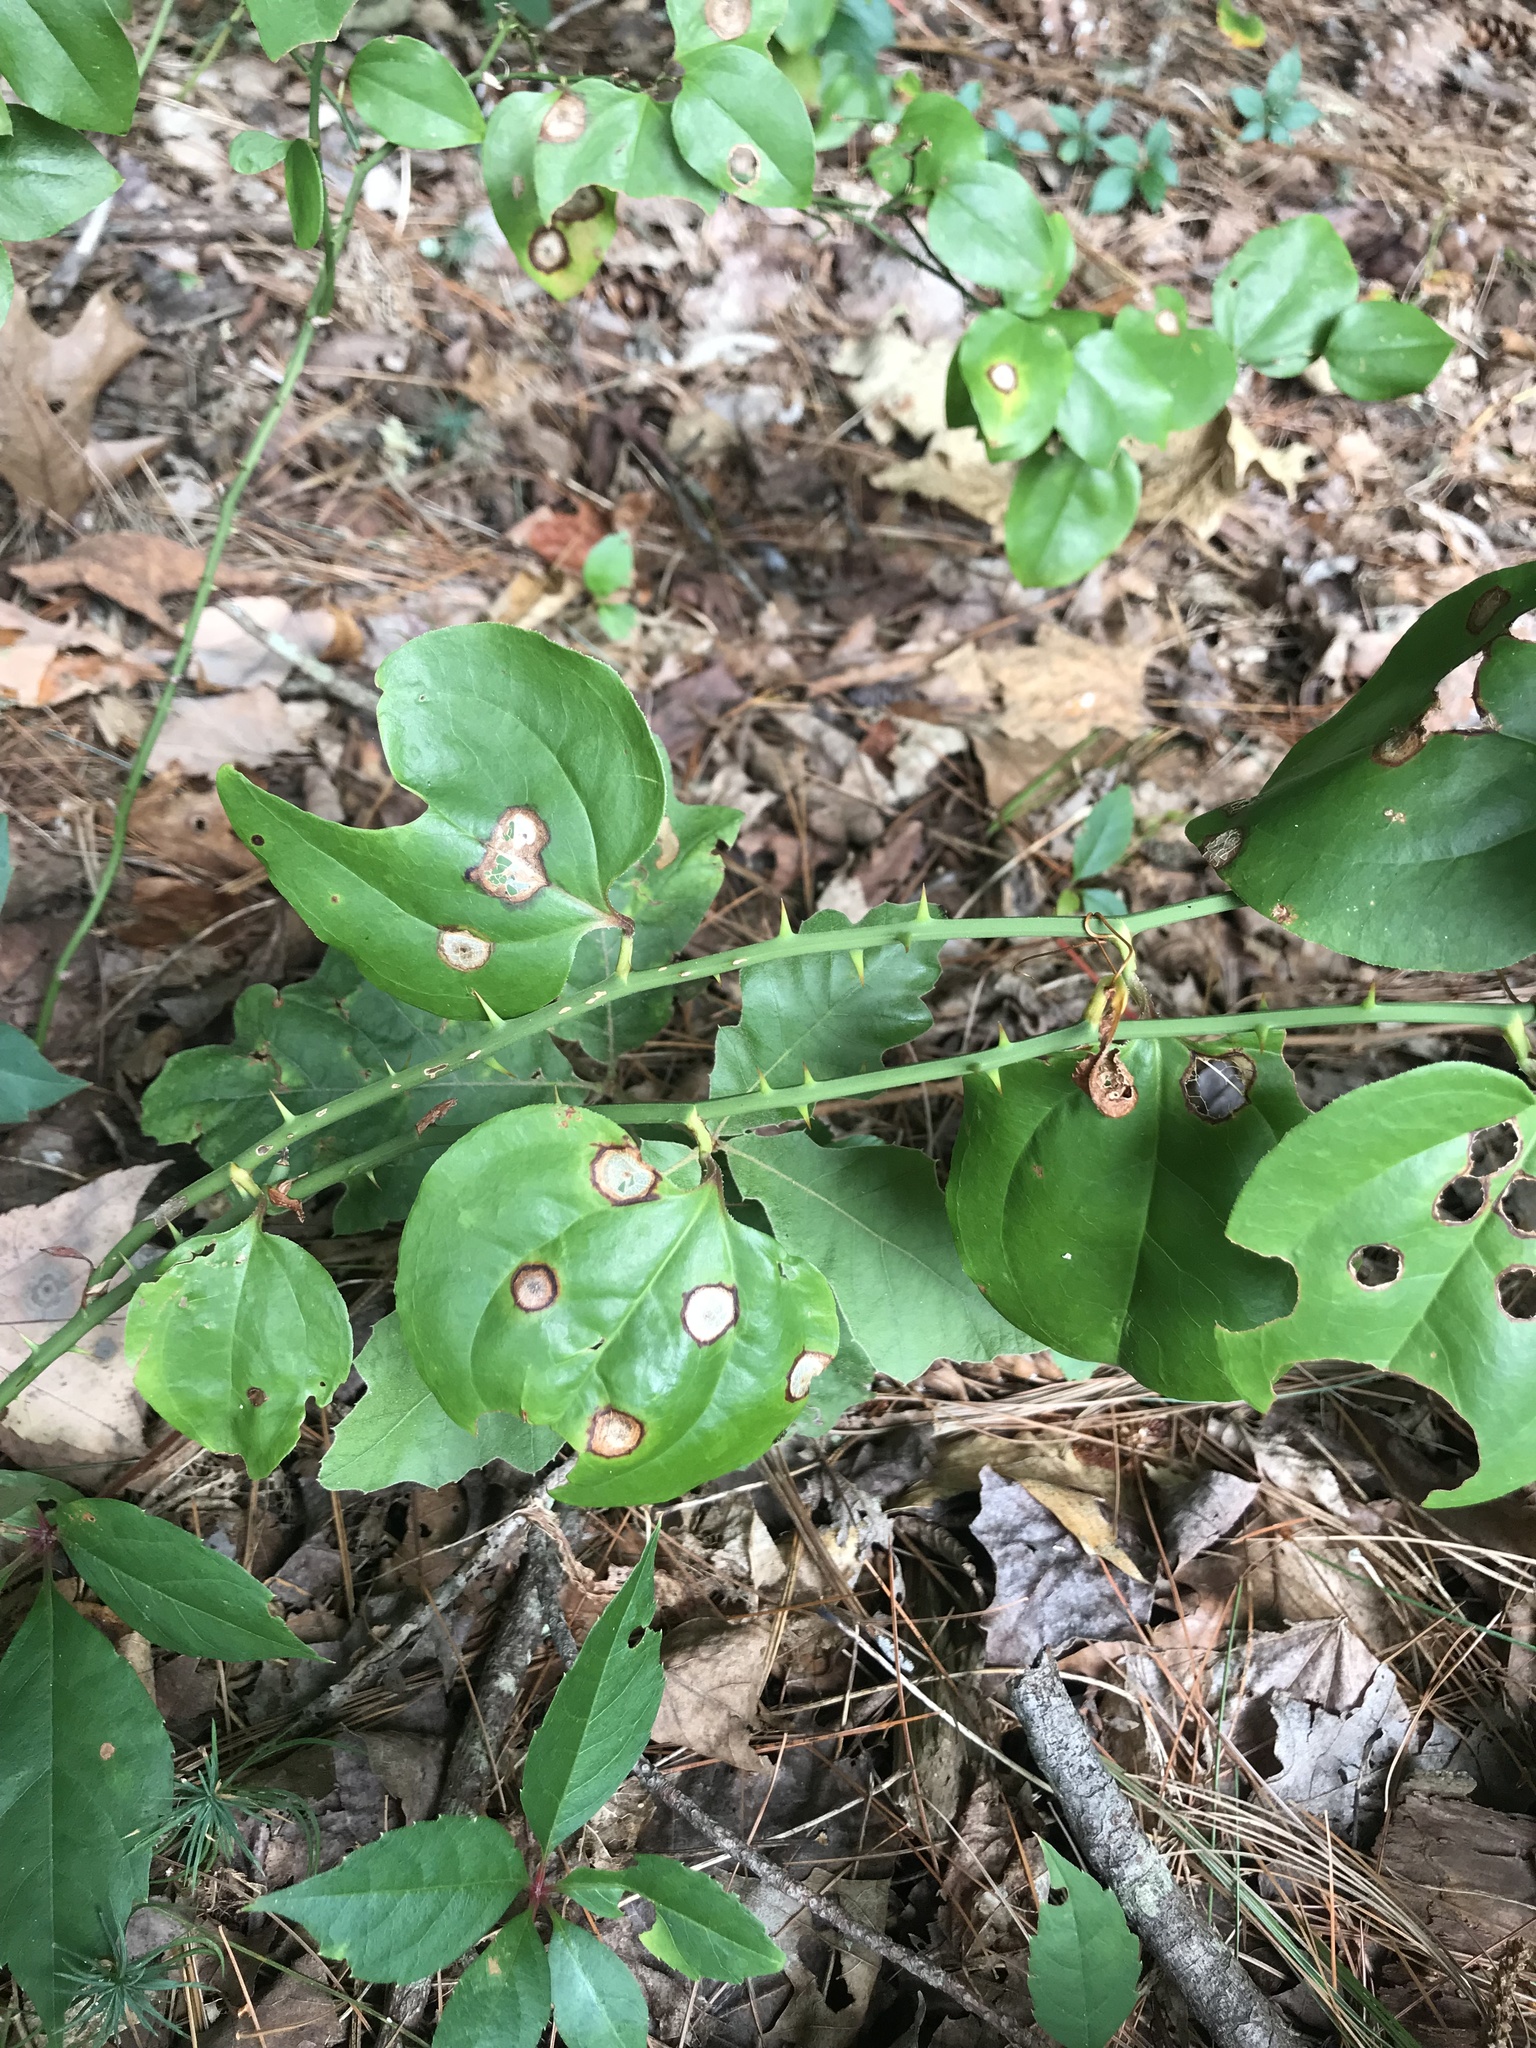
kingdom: Plantae
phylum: Tracheophyta
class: Liliopsida
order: Liliales
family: Smilacaceae
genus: Smilax
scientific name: Smilax rotundifolia
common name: Bullbriar
